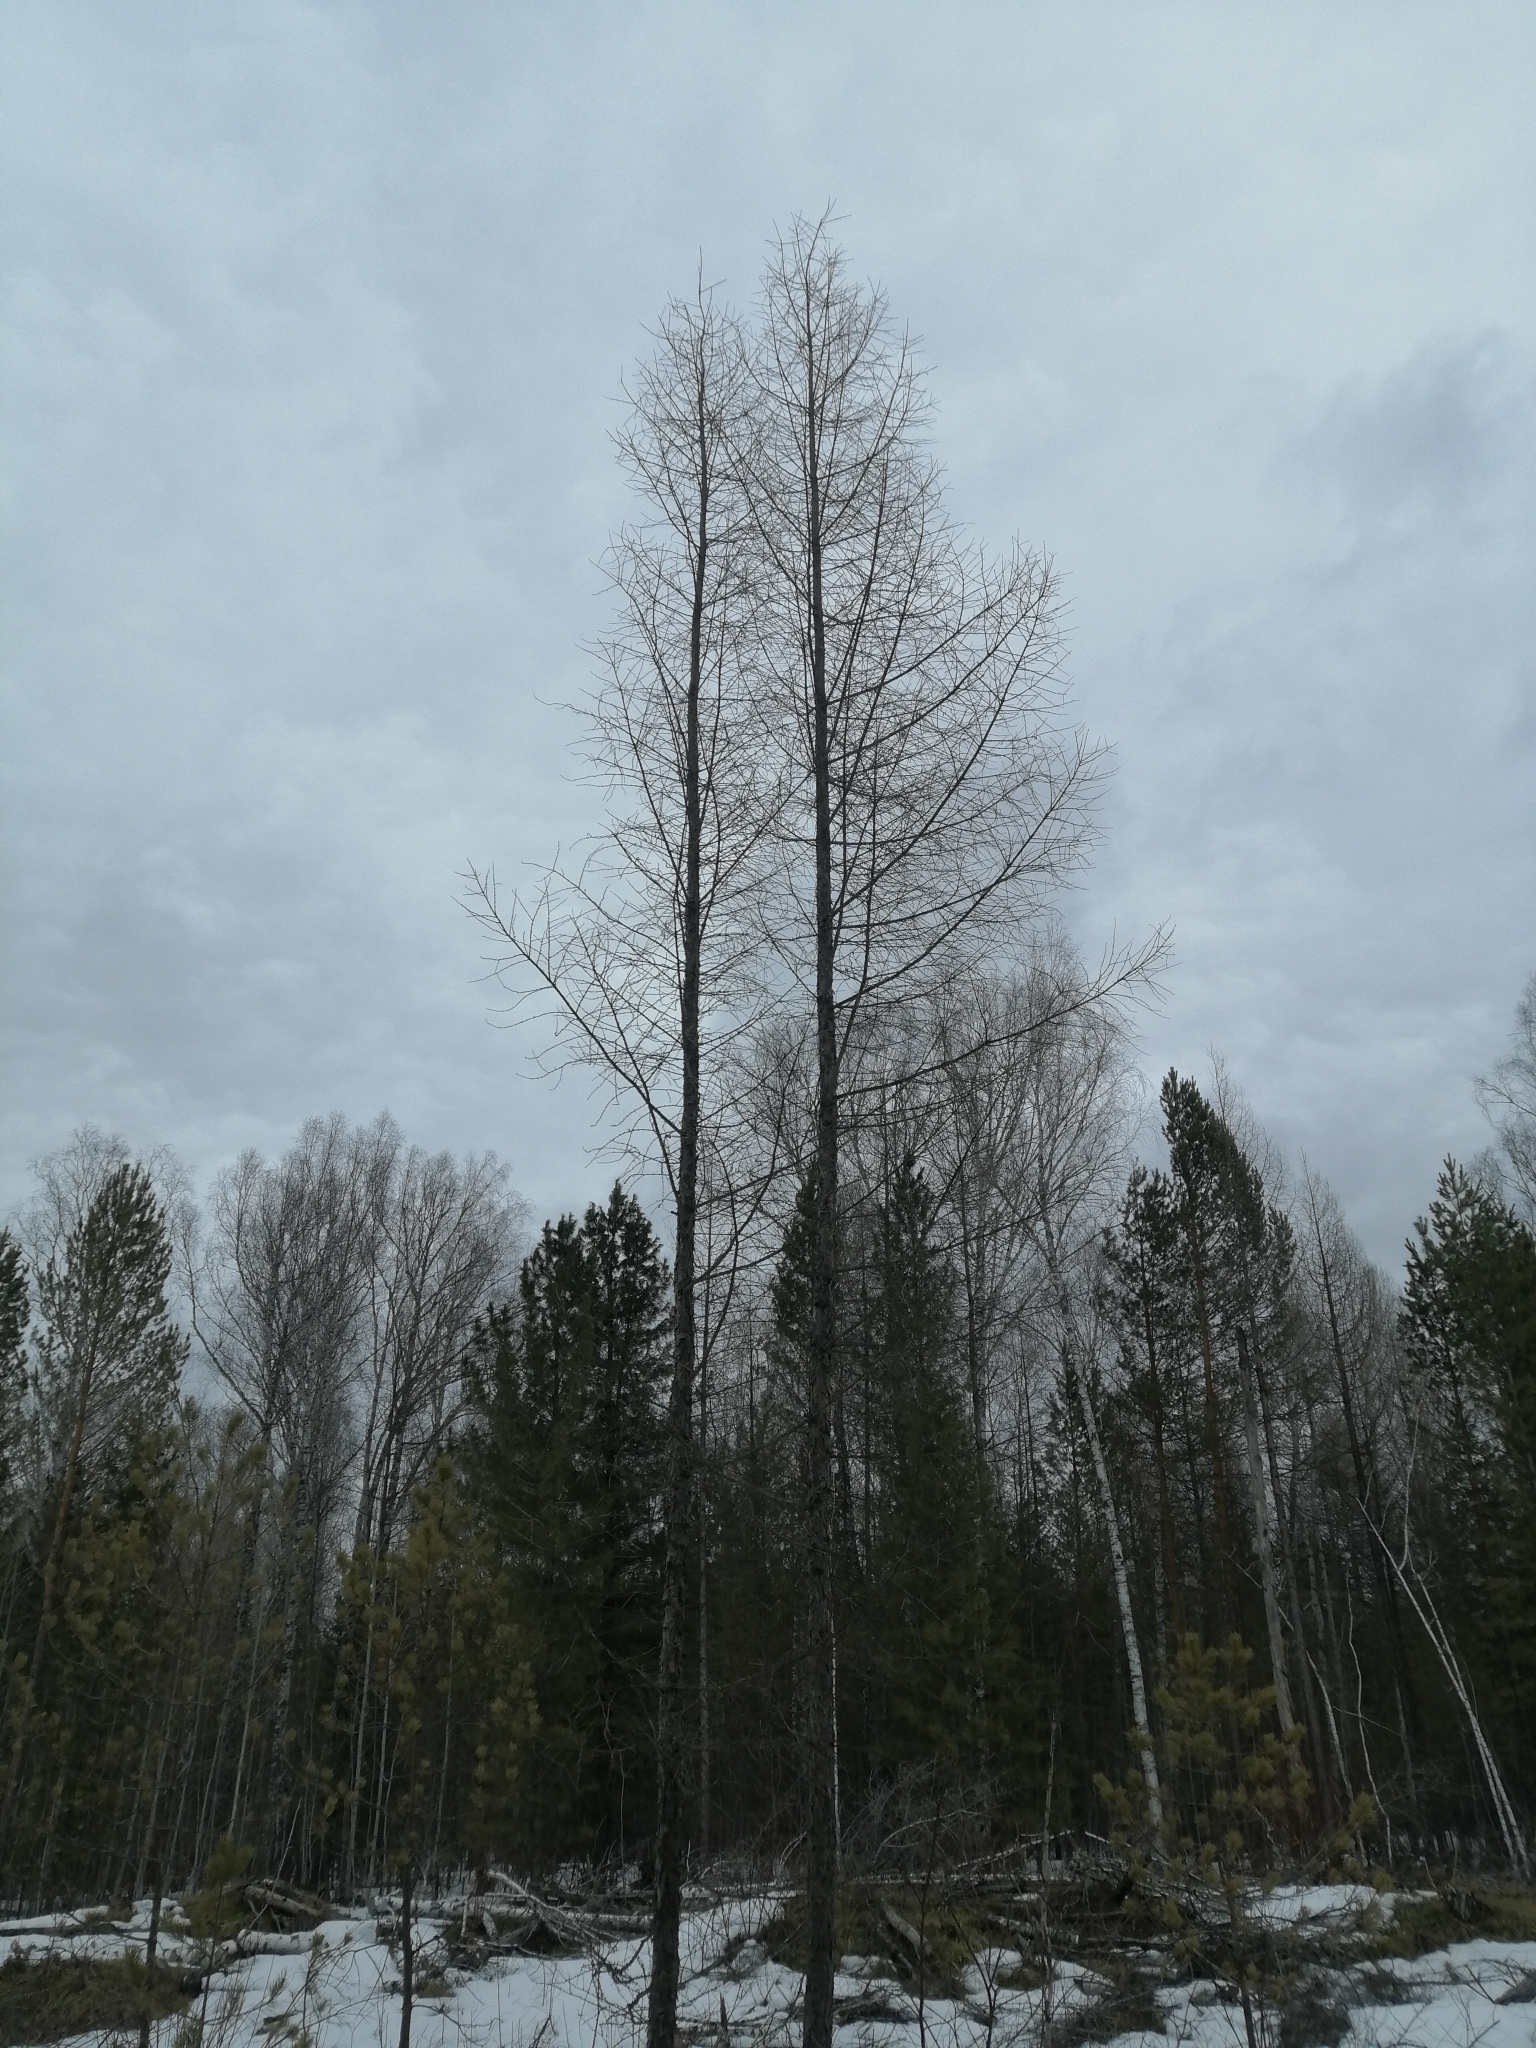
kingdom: Plantae
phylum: Tracheophyta
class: Pinopsida
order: Pinales
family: Pinaceae
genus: Larix
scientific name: Larix sibirica
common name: Siberian larch
